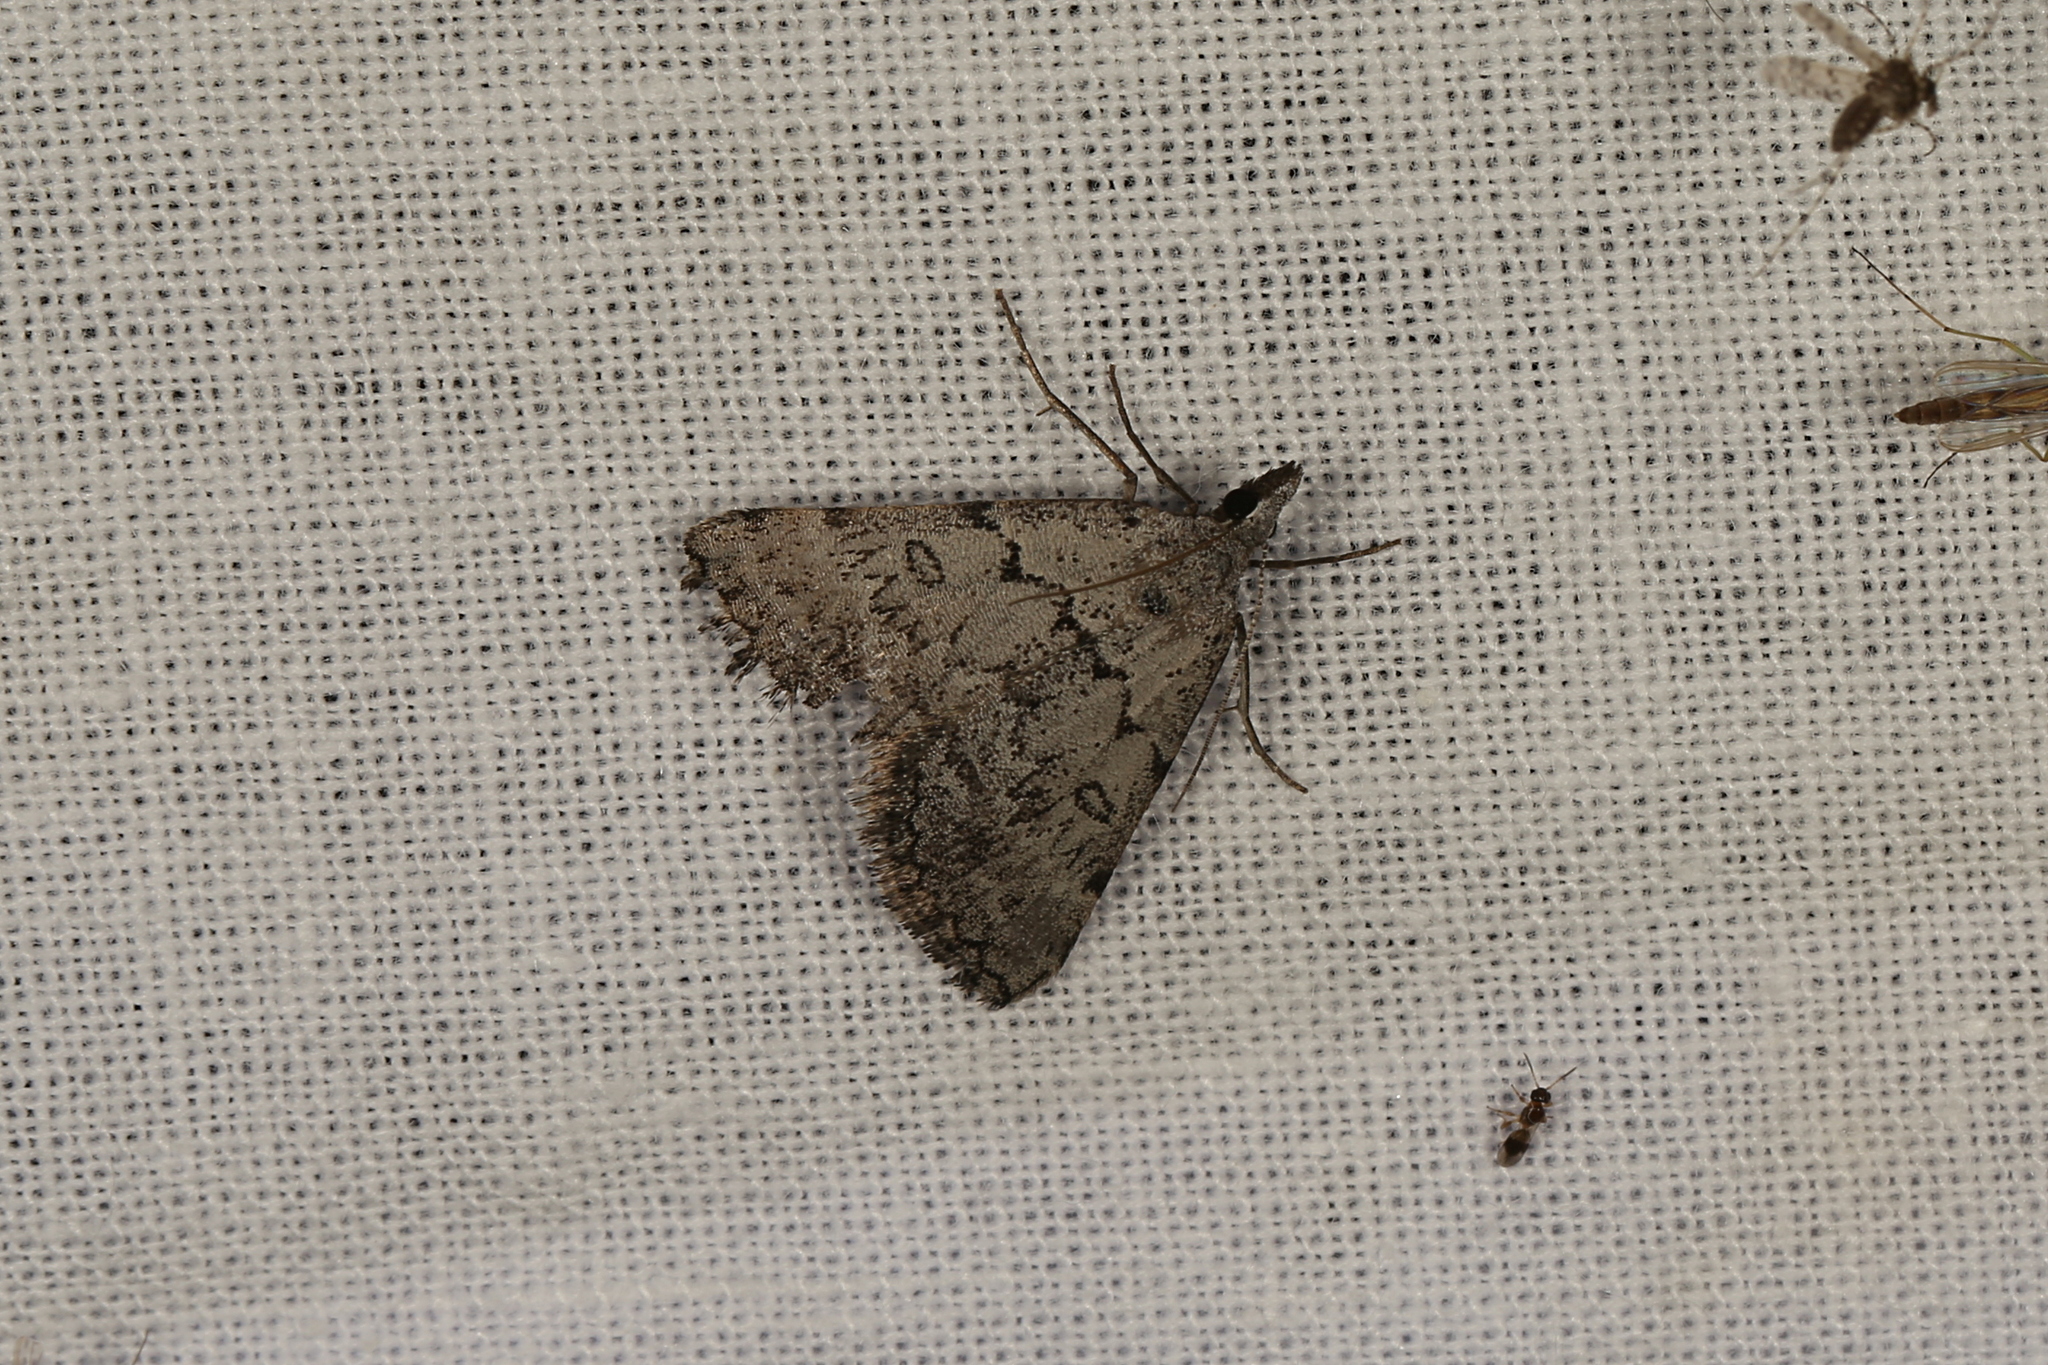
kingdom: Animalia
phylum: Arthropoda
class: Insecta
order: Lepidoptera
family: Geometridae
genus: Dichromodes
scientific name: Dichromodes indicataria
